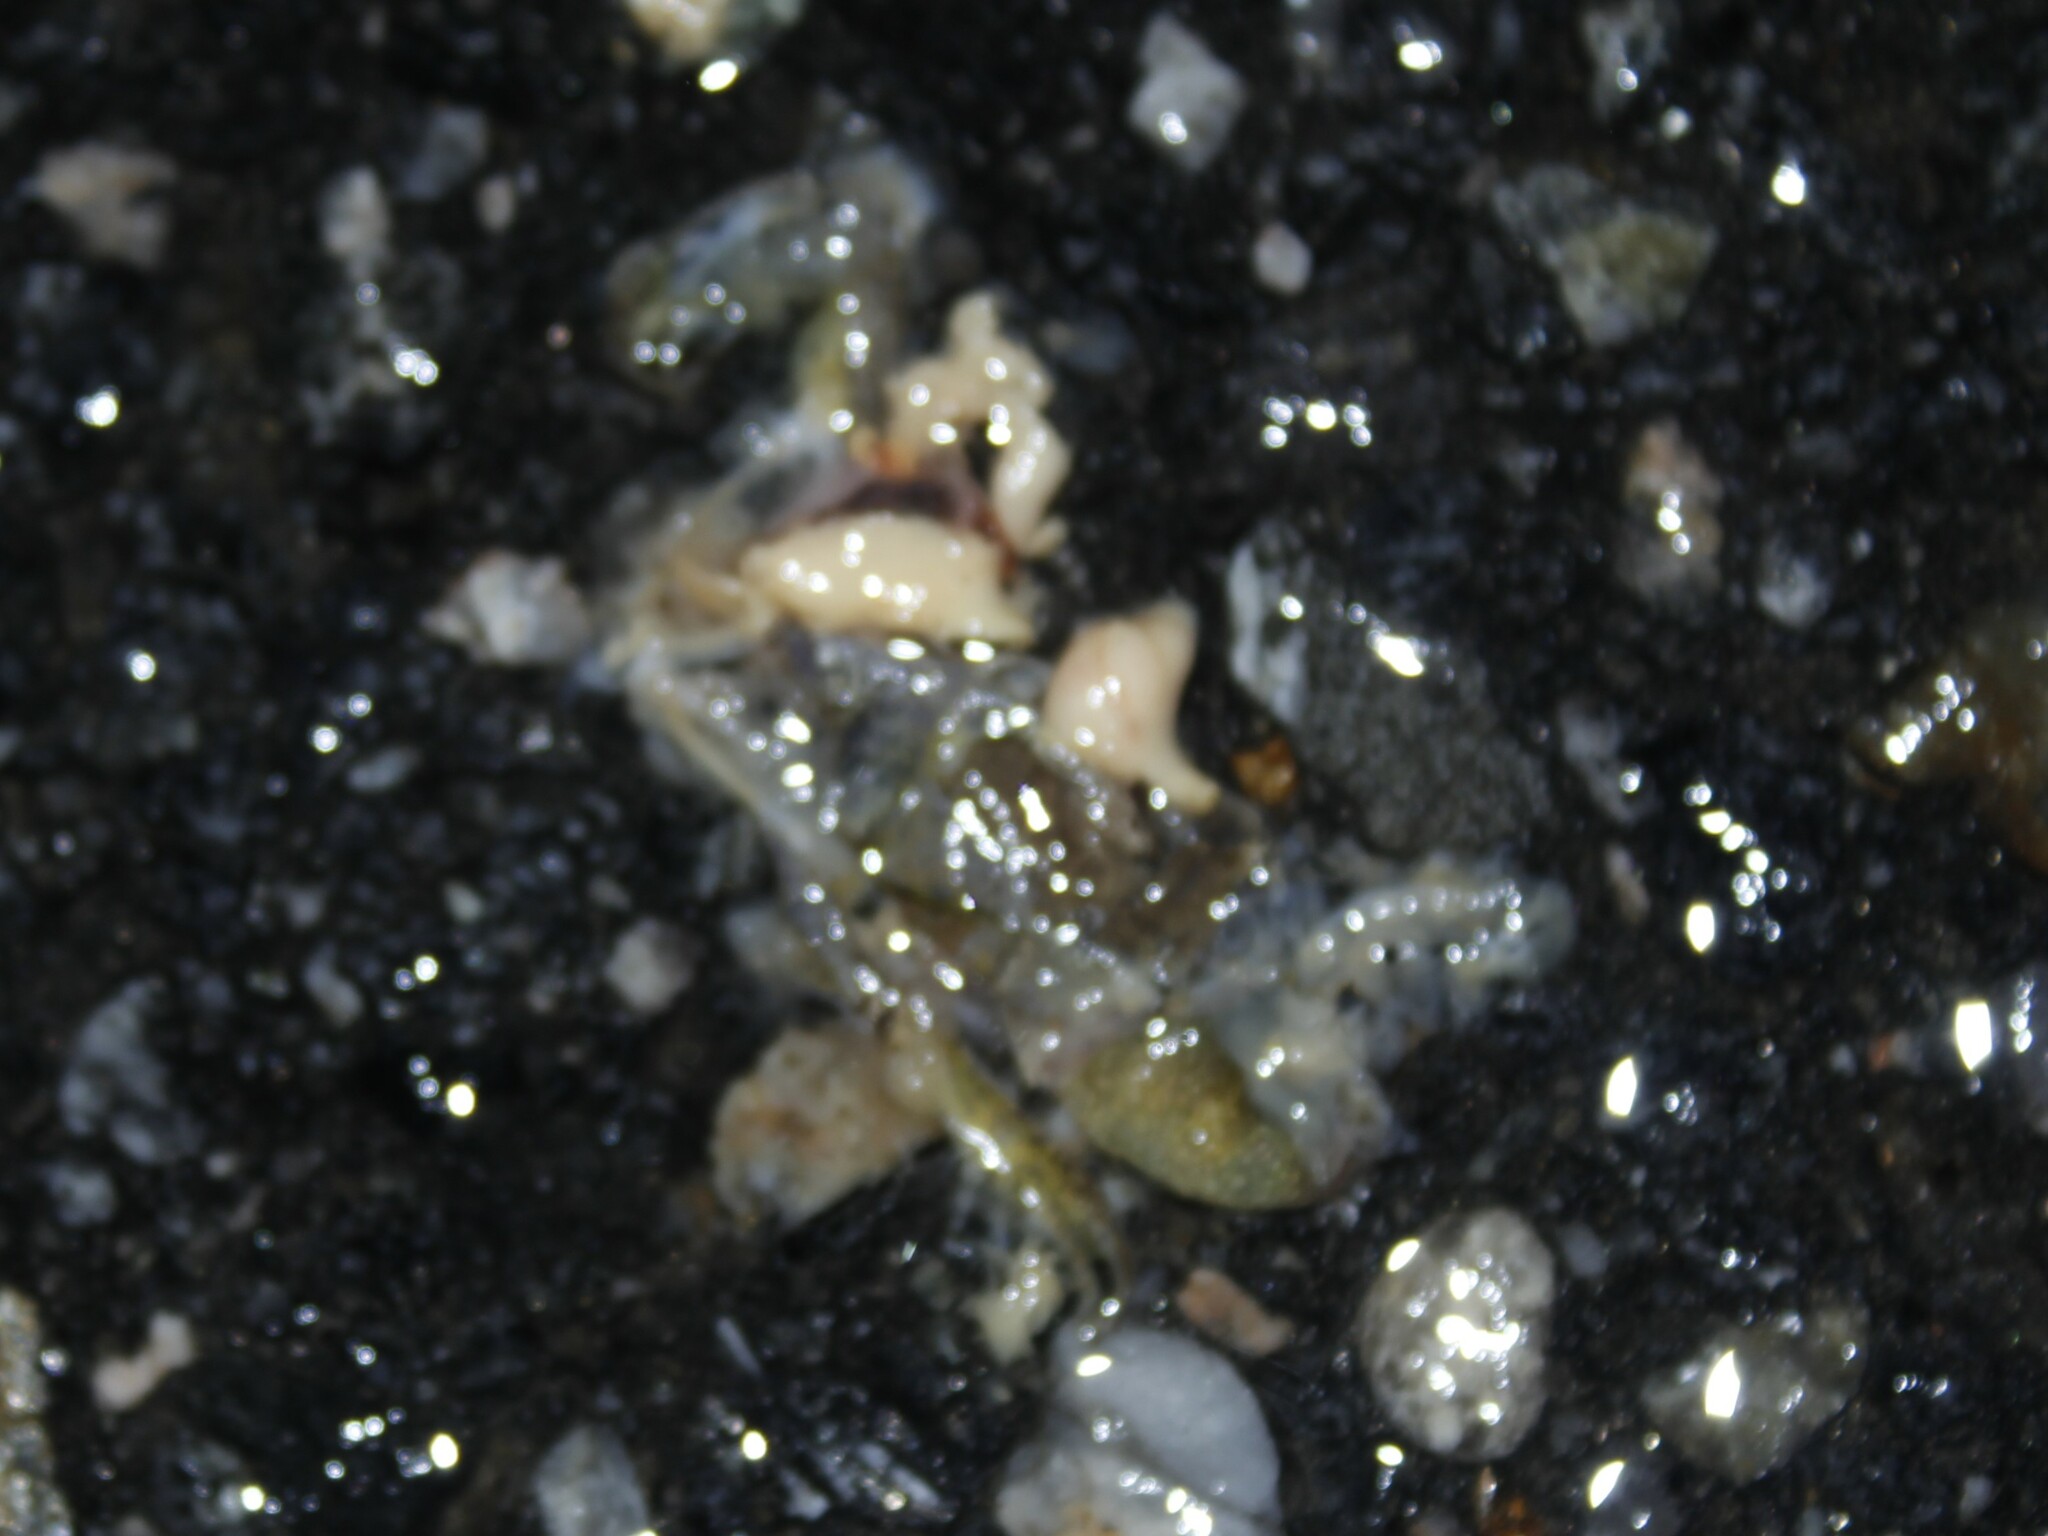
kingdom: Animalia
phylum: Chordata
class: Amphibia
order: Anura
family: Hylidae
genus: Pseudacris
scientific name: Pseudacris crucifer
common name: Spring peeper
